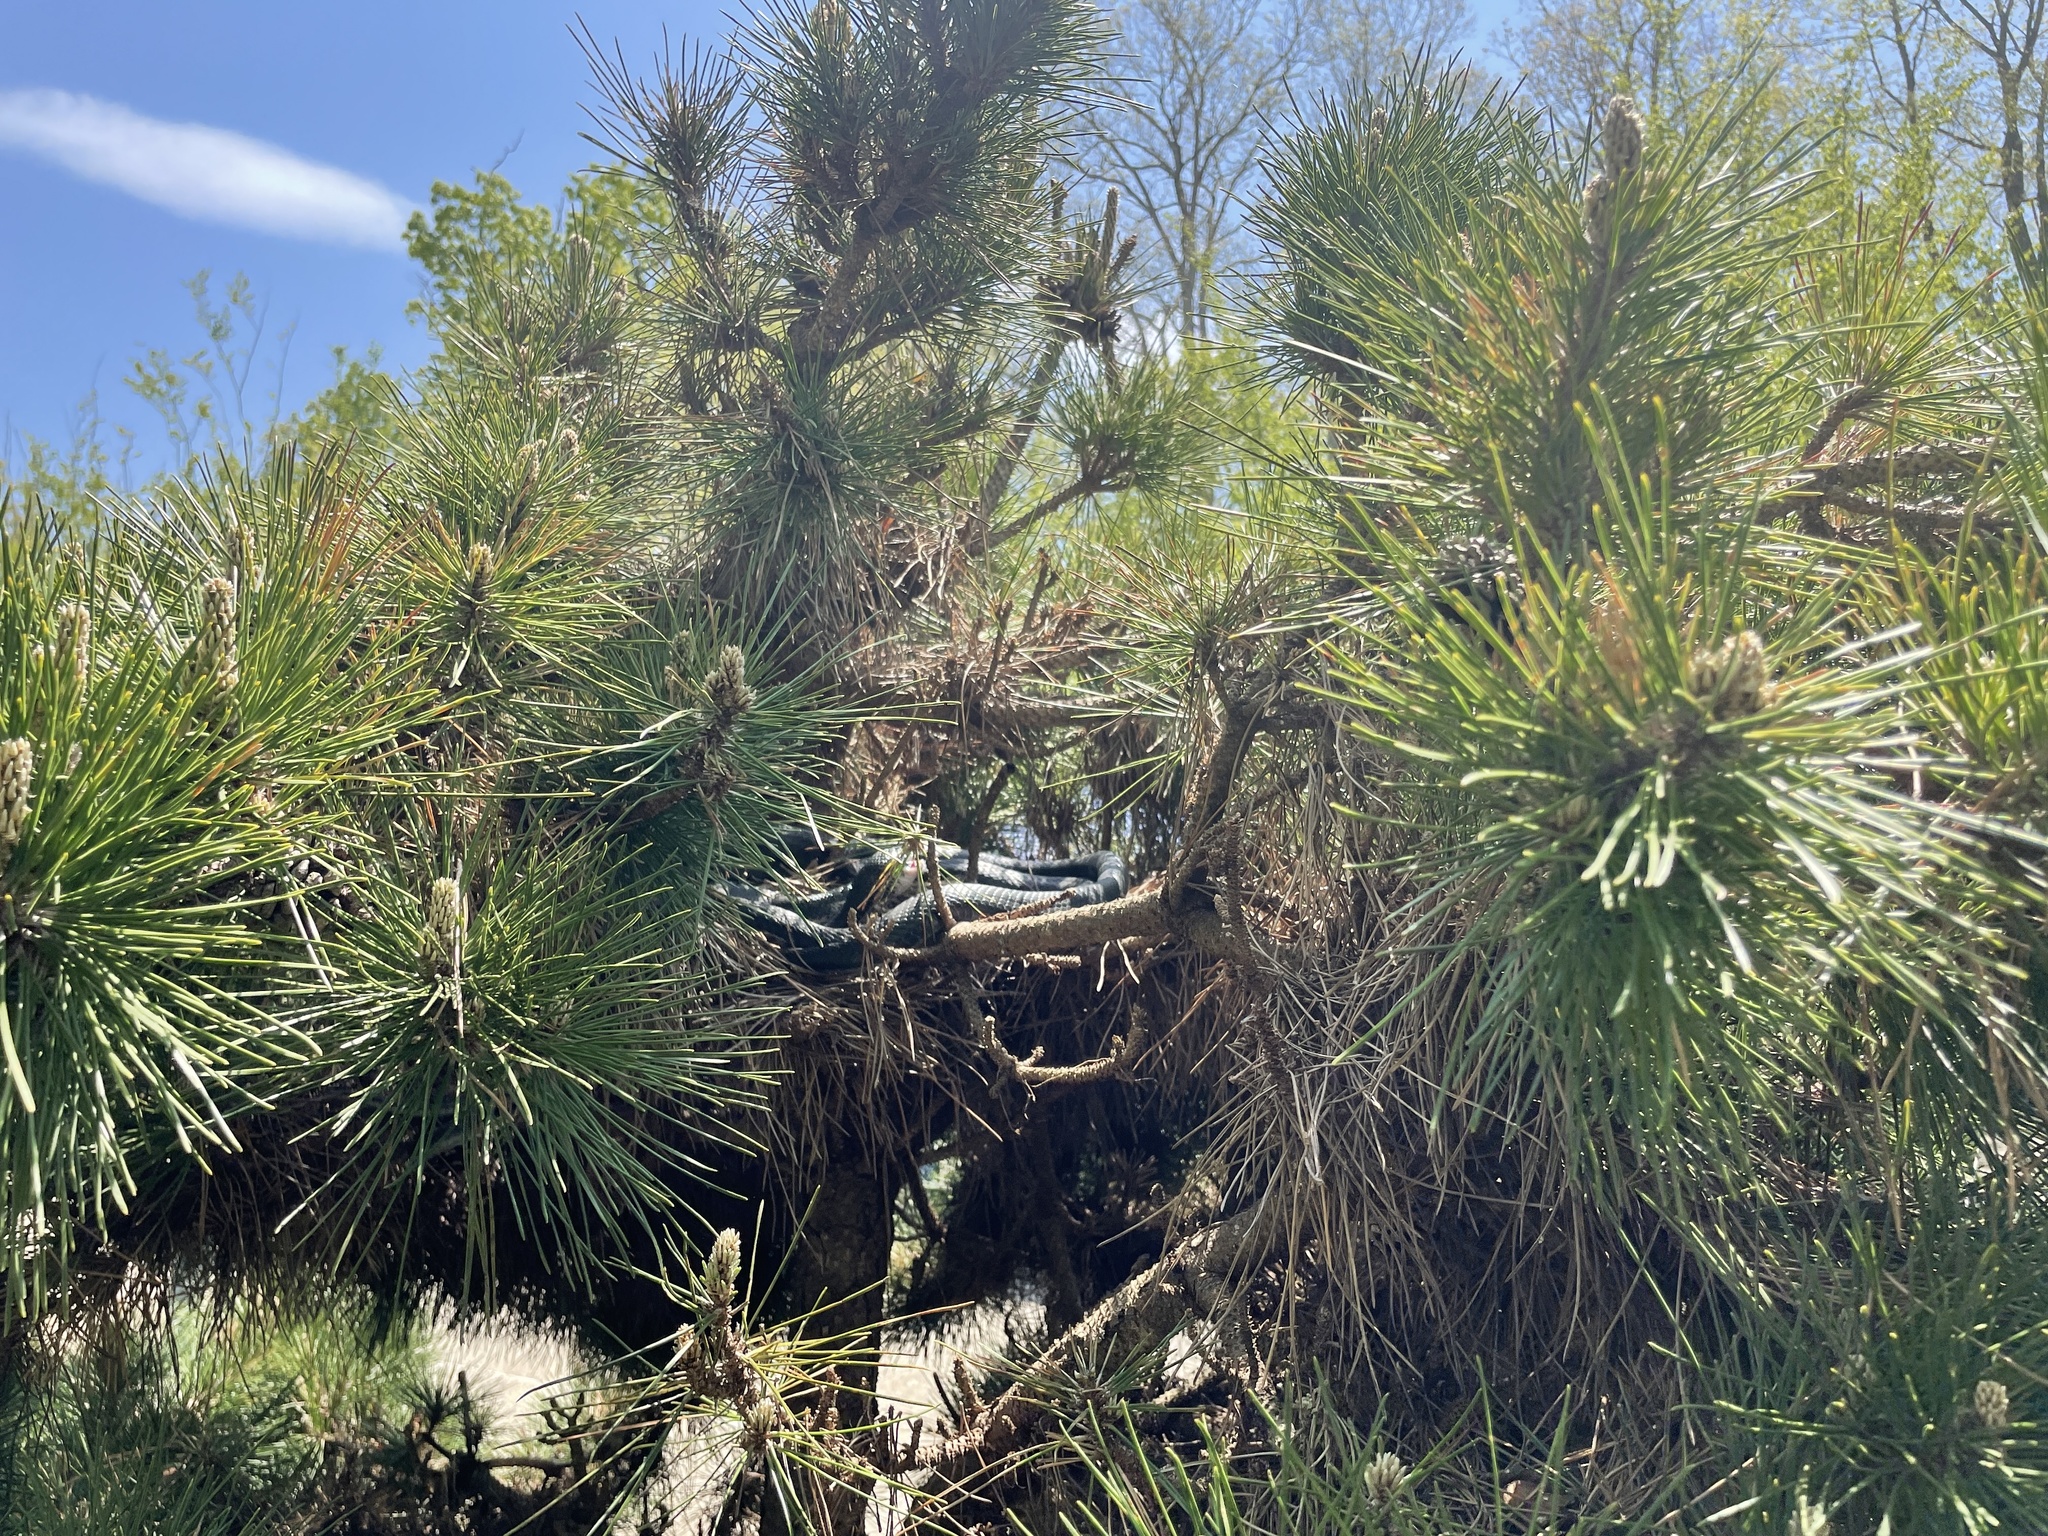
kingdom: Animalia
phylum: Chordata
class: Squamata
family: Colubridae
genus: Coluber
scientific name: Coluber constrictor
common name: Eastern racer
